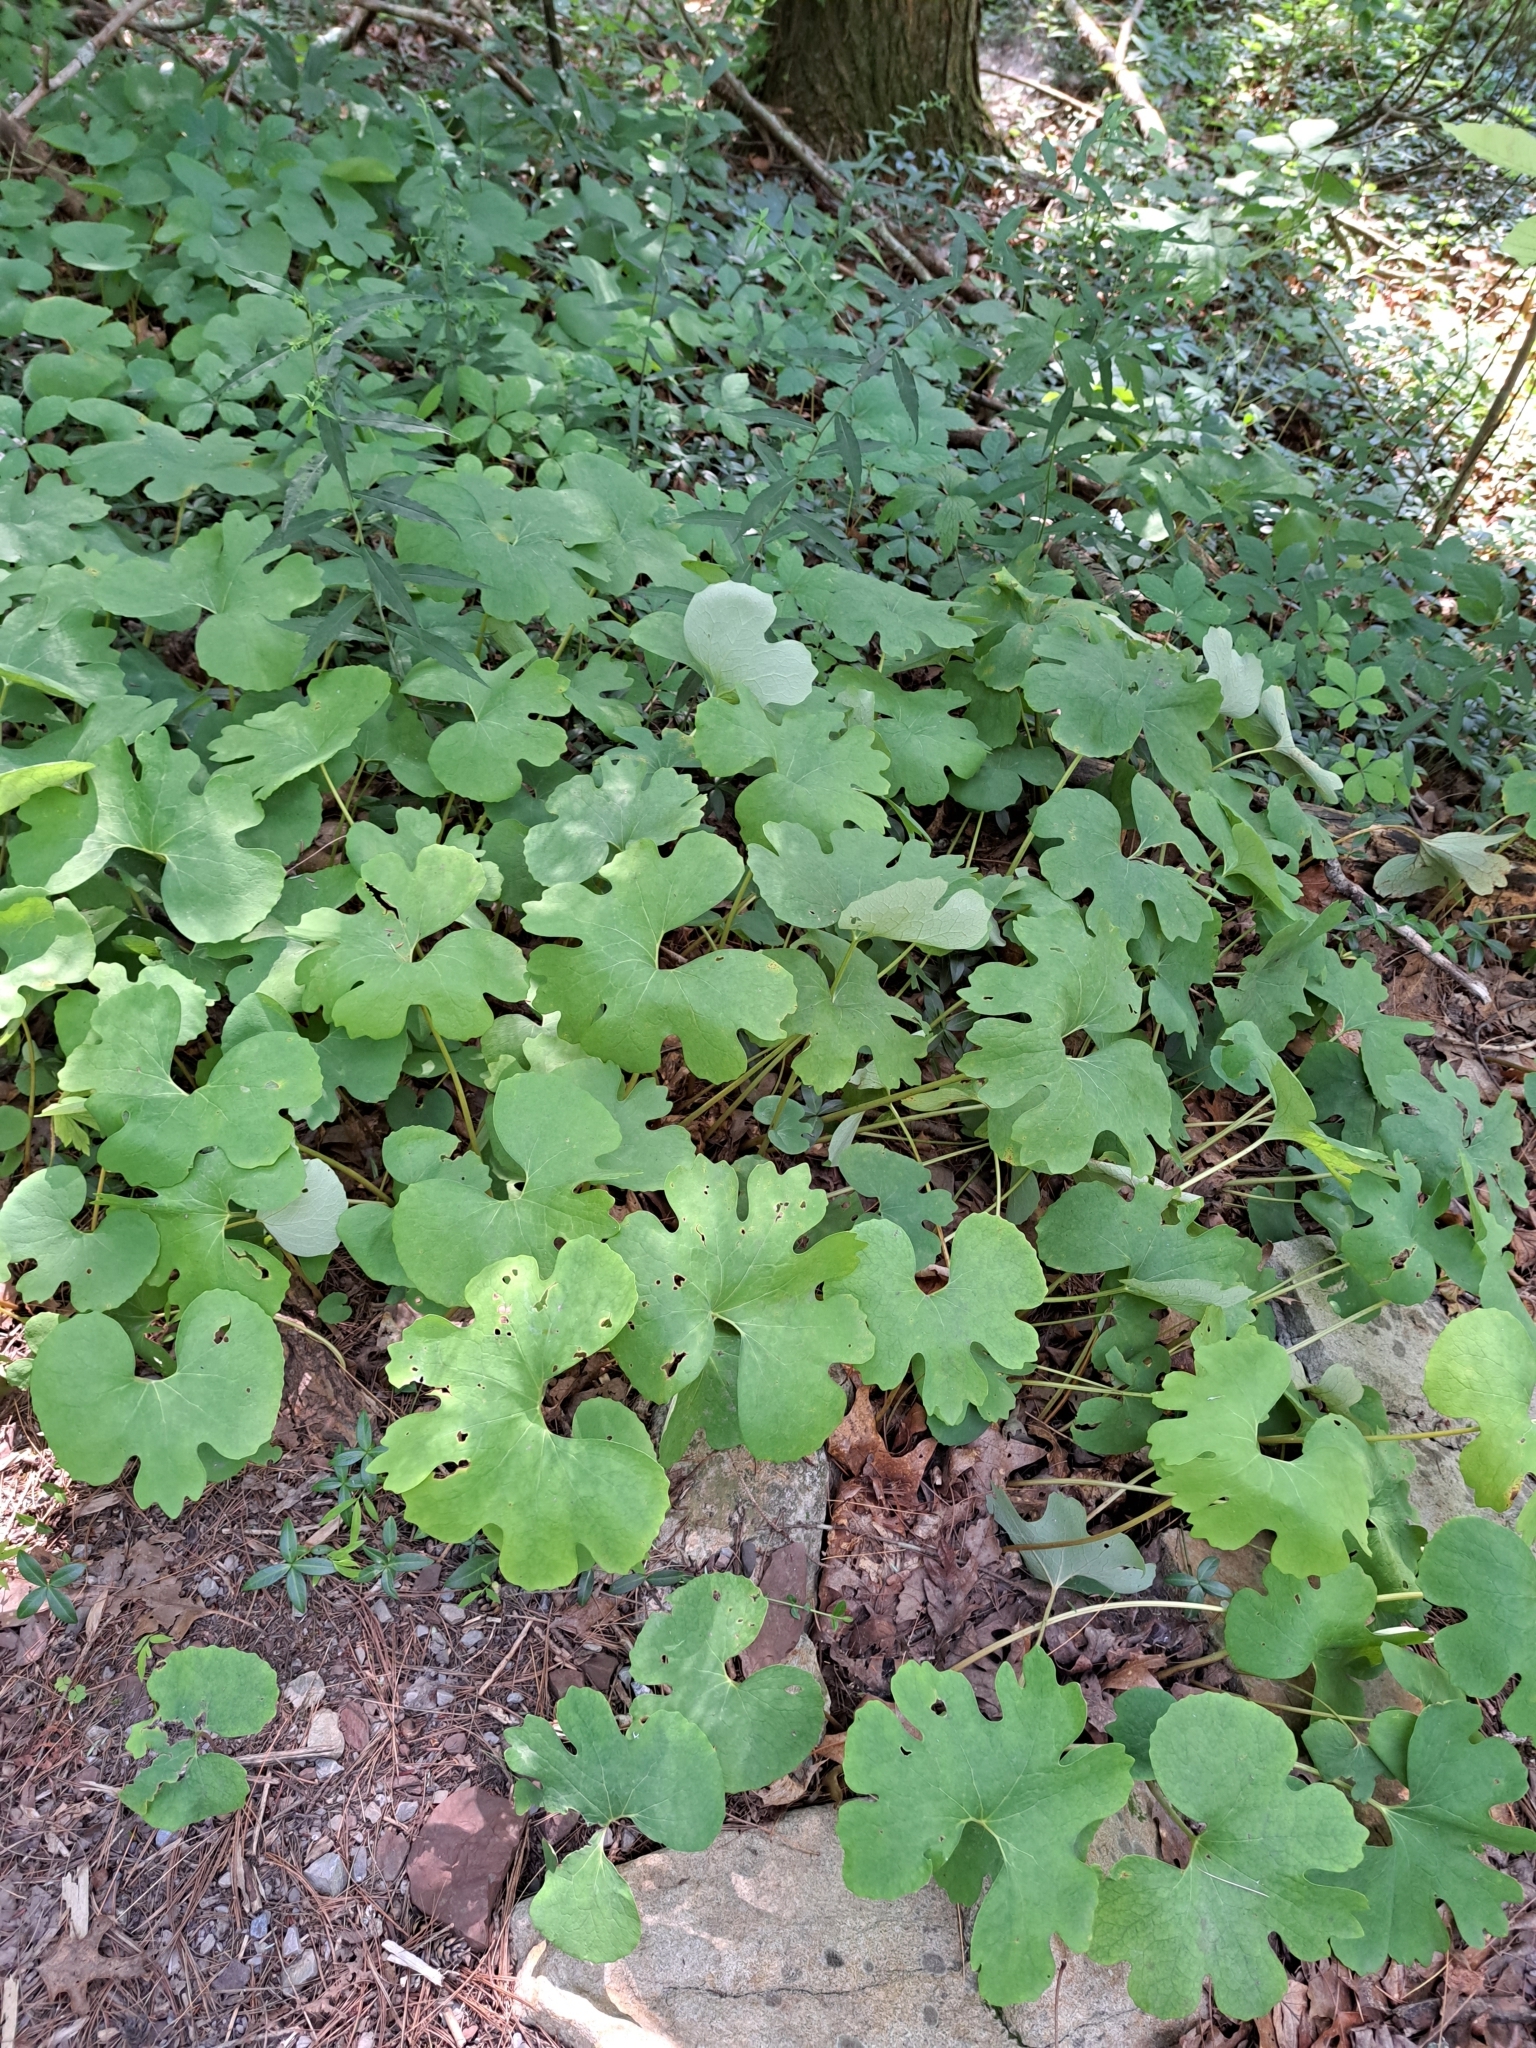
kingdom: Plantae
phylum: Tracheophyta
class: Magnoliopsida
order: Ranunculales
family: Papaveraceae
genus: Sanguinaria
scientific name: Sanguinaria canadensis
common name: Bloodroot
